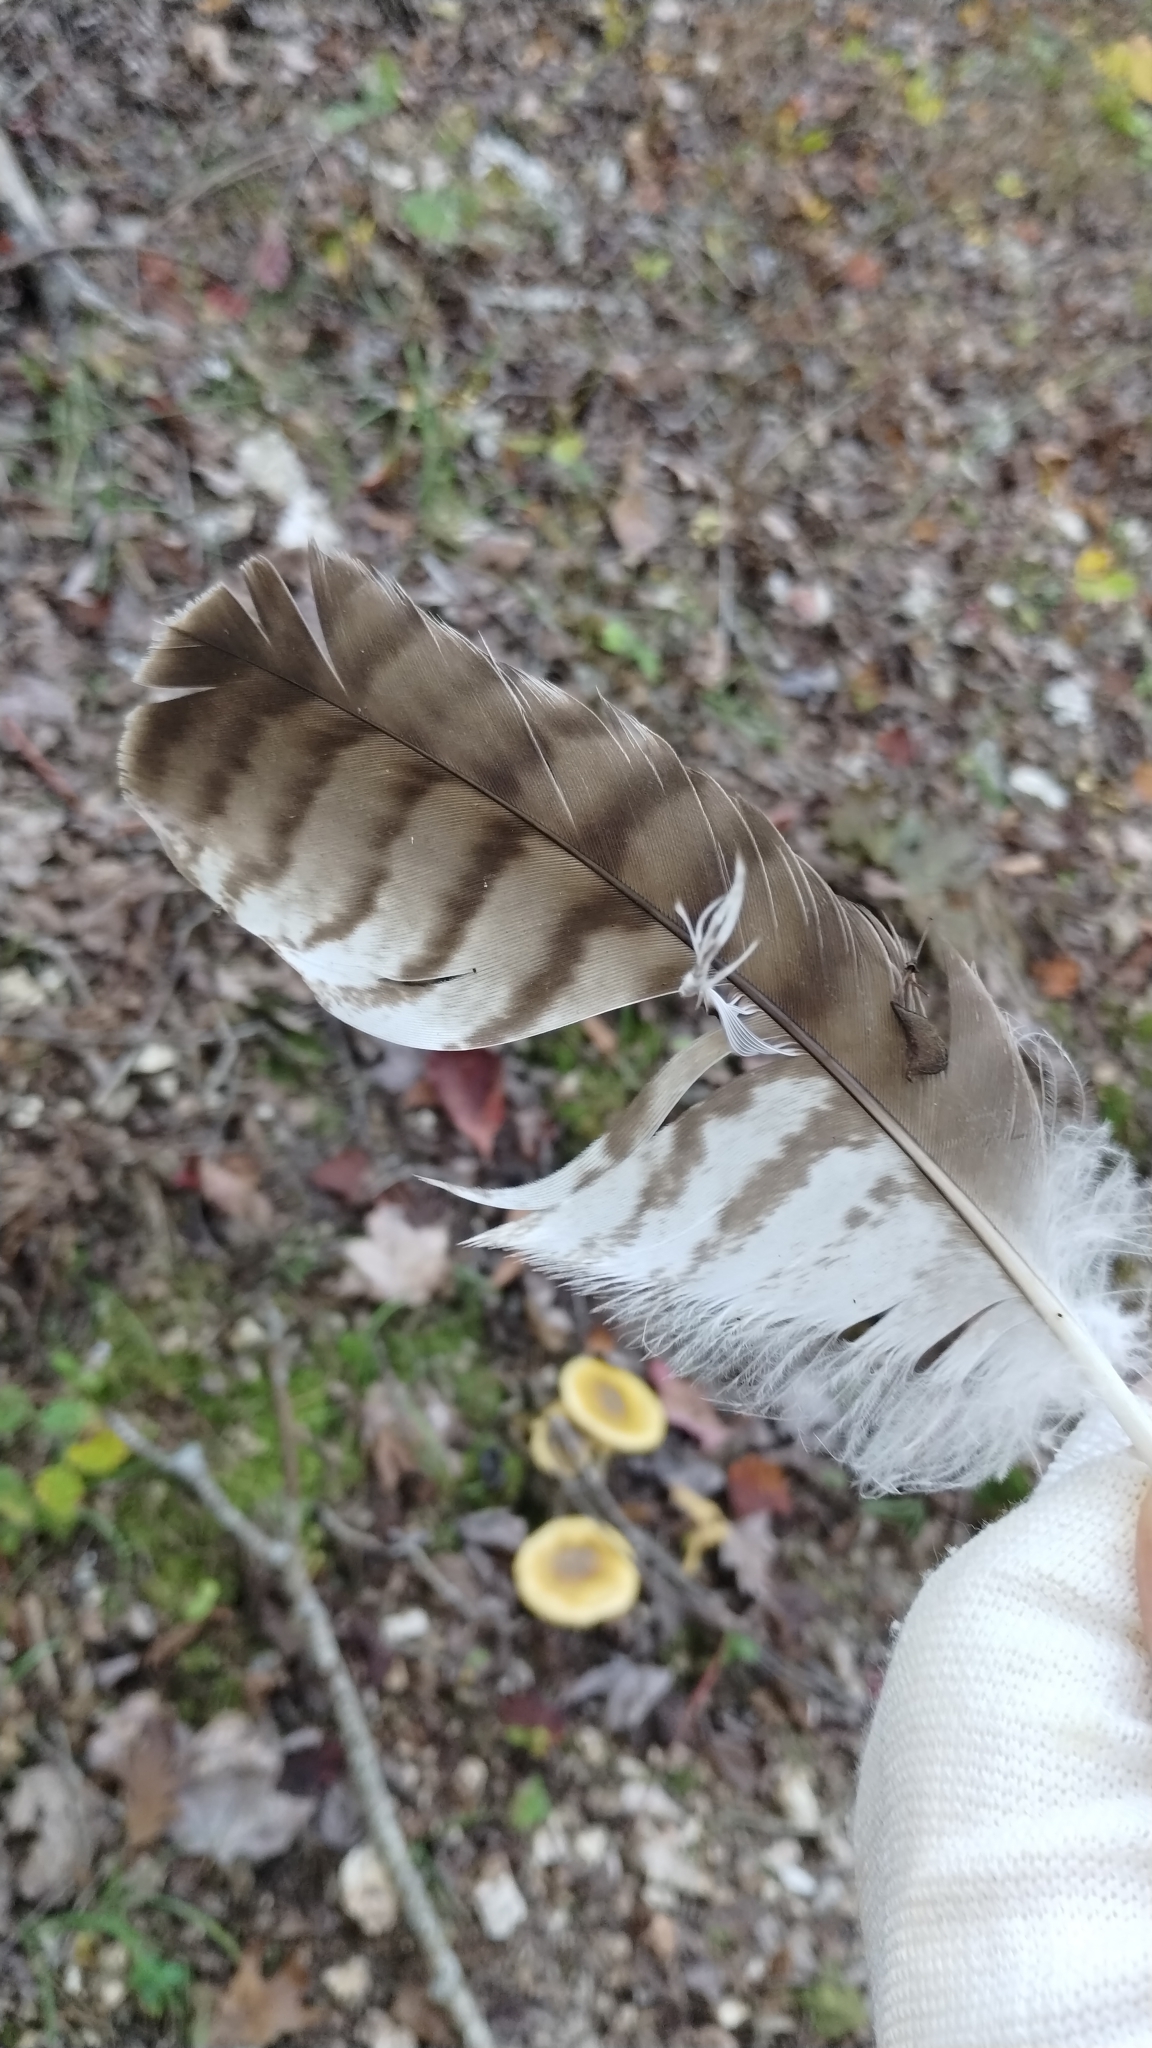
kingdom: Animalia
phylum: Chordata
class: Aves
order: Accipitriformes
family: Accipitridae
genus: Buteo
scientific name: Buteo jamaicensis
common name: Red-tailed hawk
